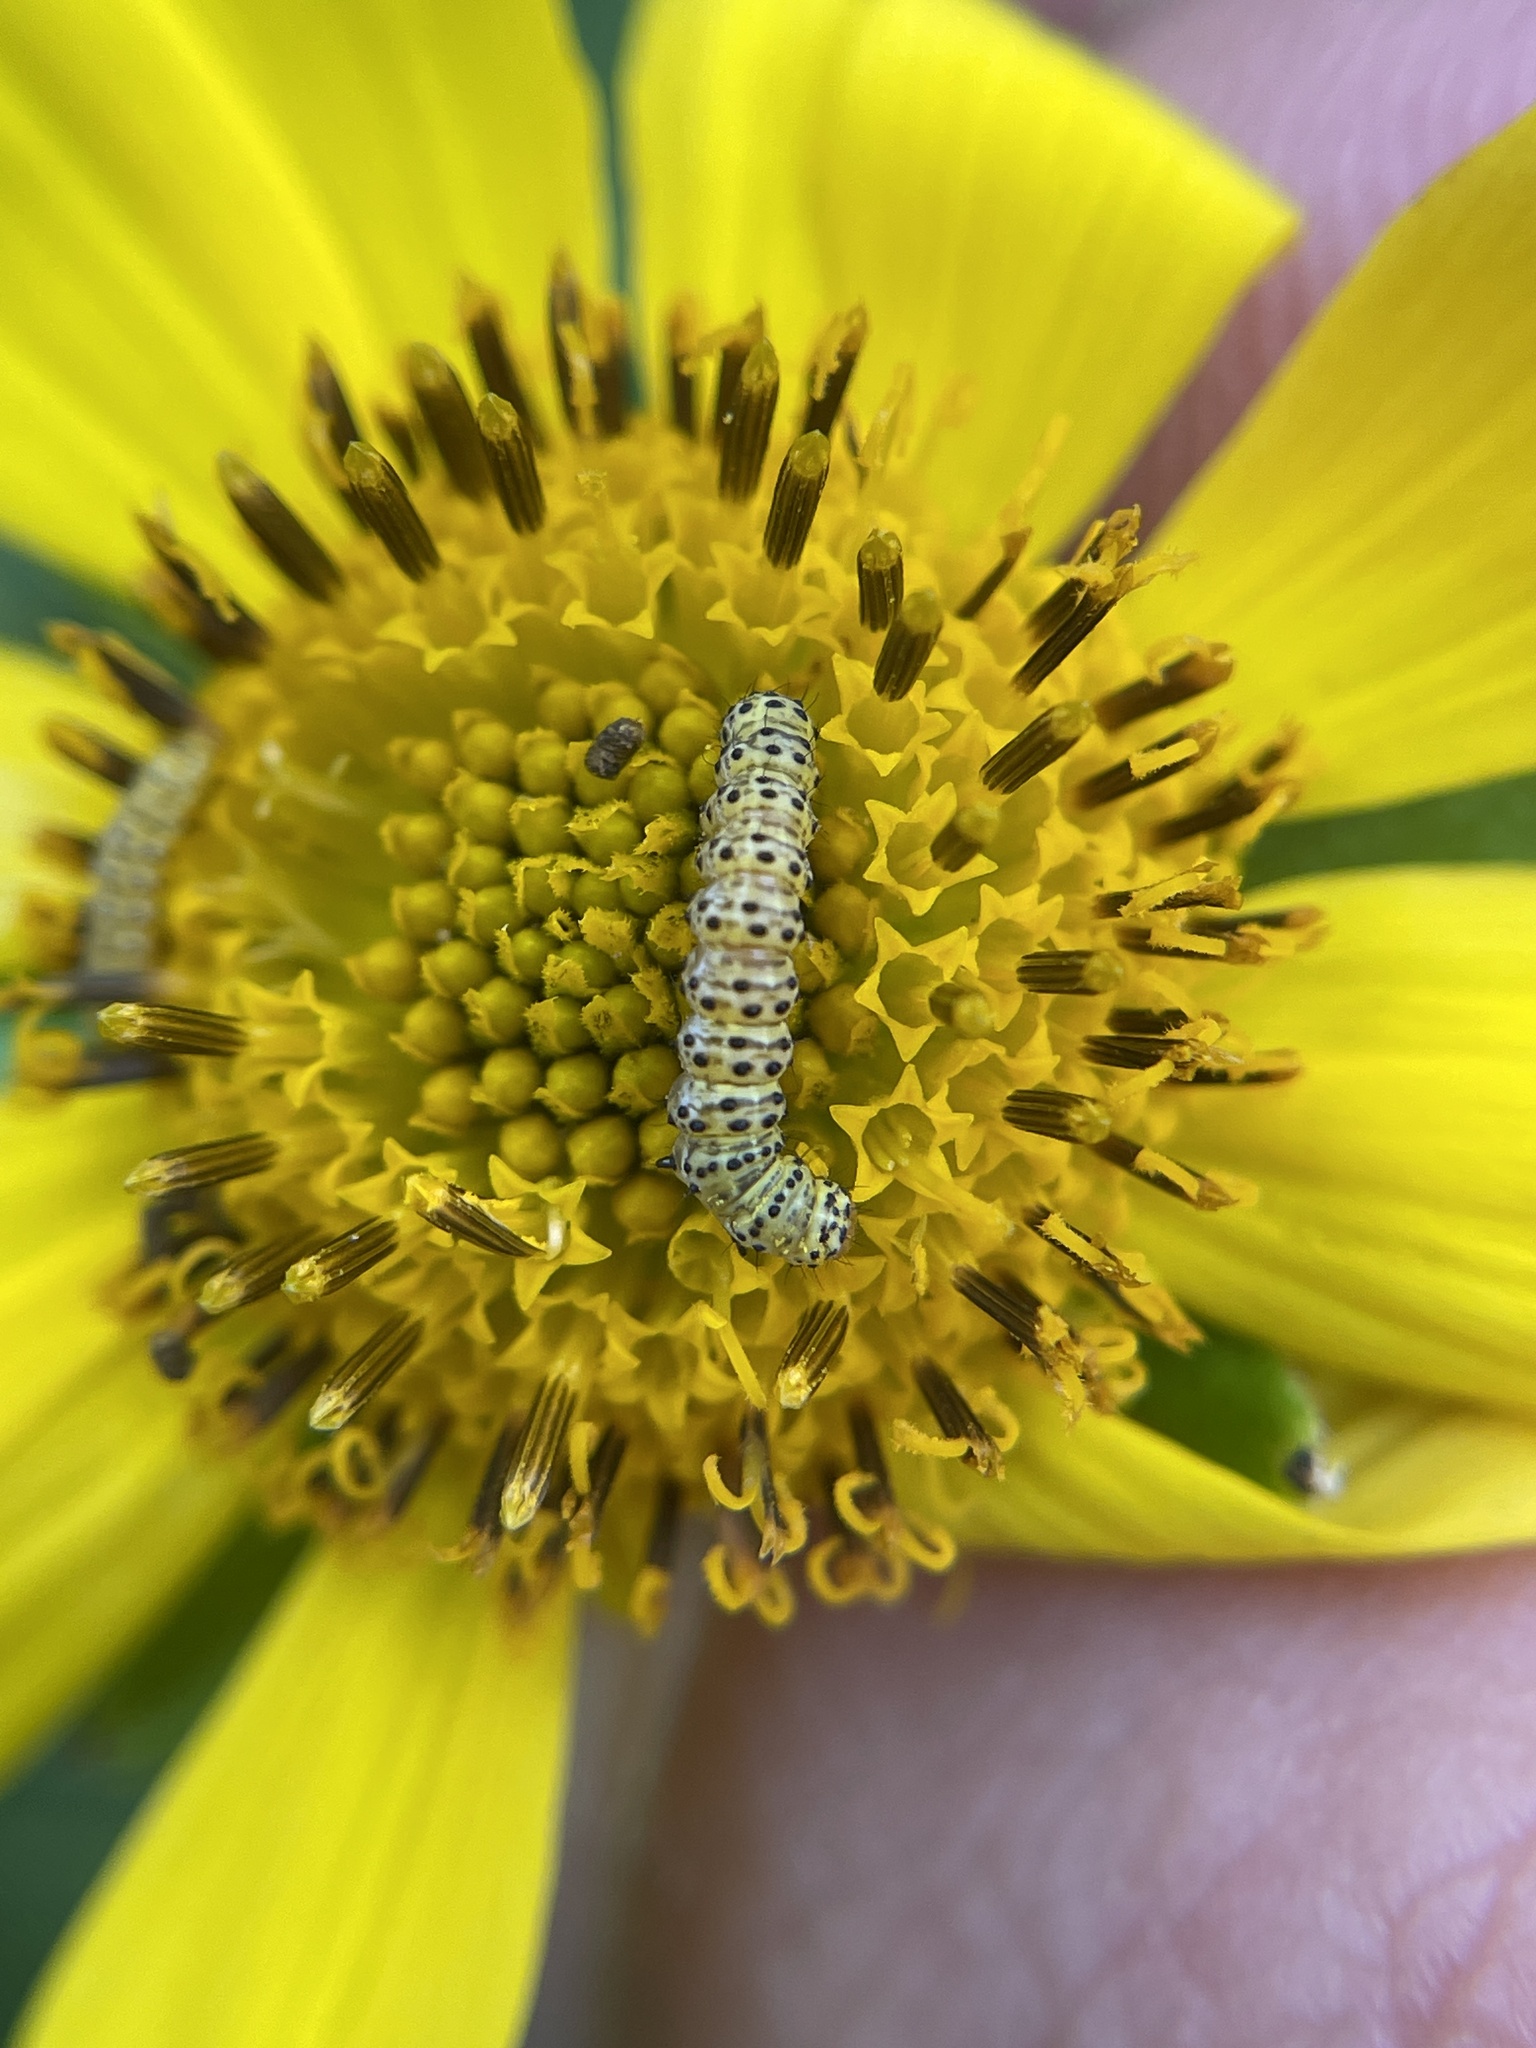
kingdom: Animalia
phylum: Arthropoda
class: Insecta
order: Lepidoptera
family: Noctuidae
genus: Basilodes
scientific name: Basilodes chrysopis
